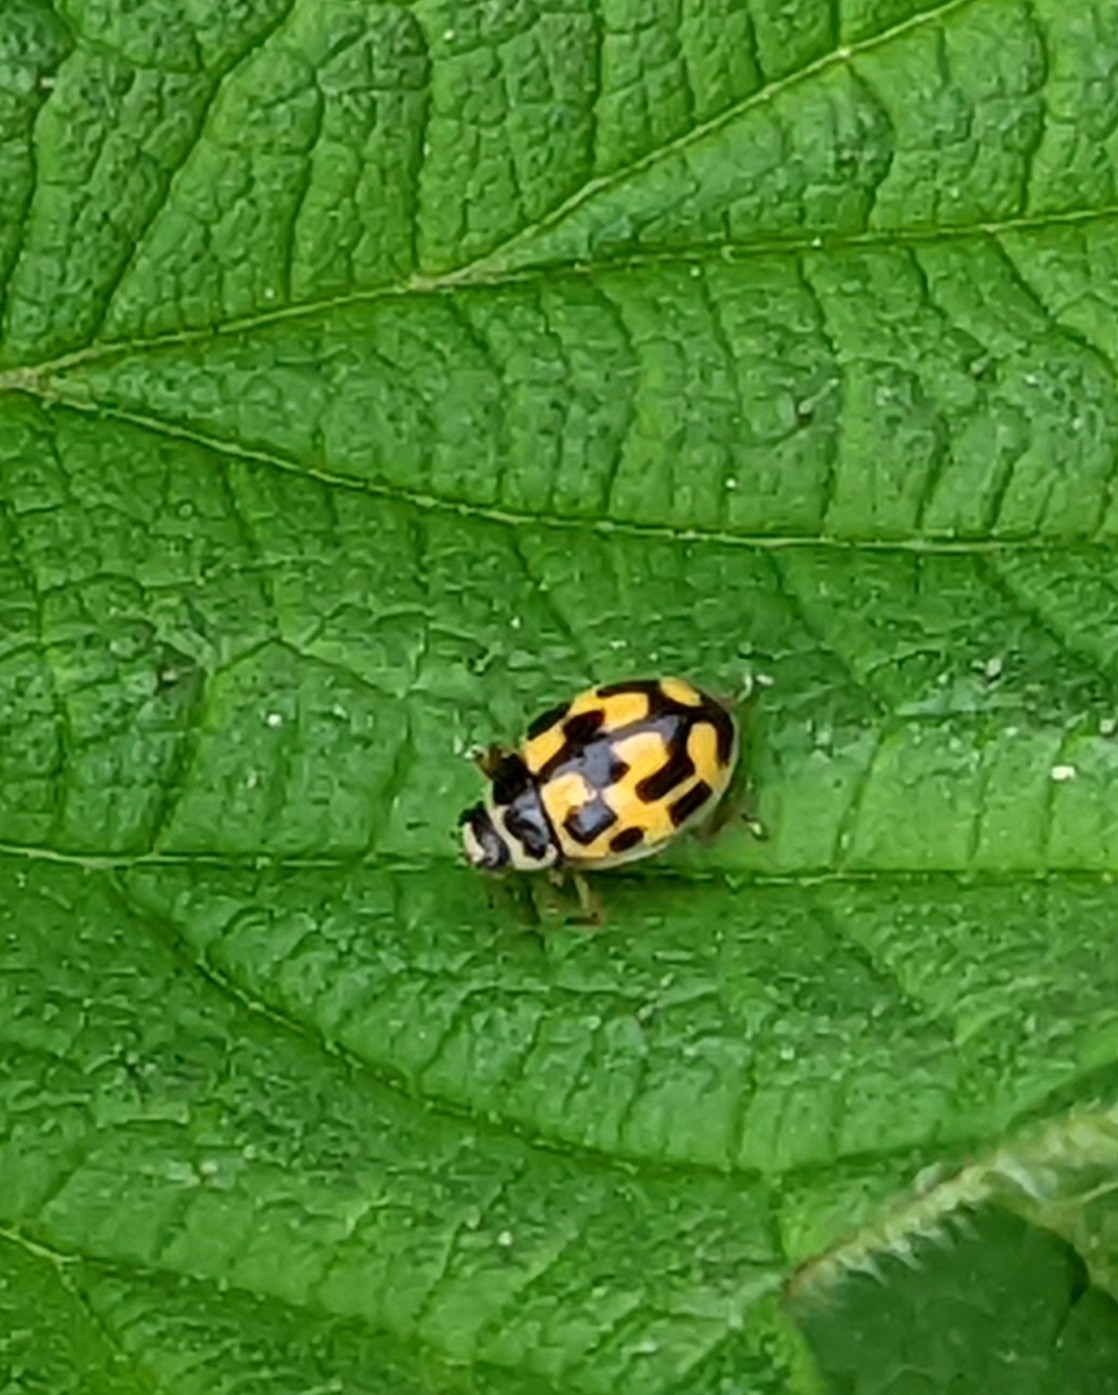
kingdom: Animalia
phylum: Arthropoda
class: Insecta
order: Coleoptera
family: Coccinellidae
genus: Propylaea
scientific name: Propylaea quatuordecimpunctata
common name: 14-spotted ladybird beetle
